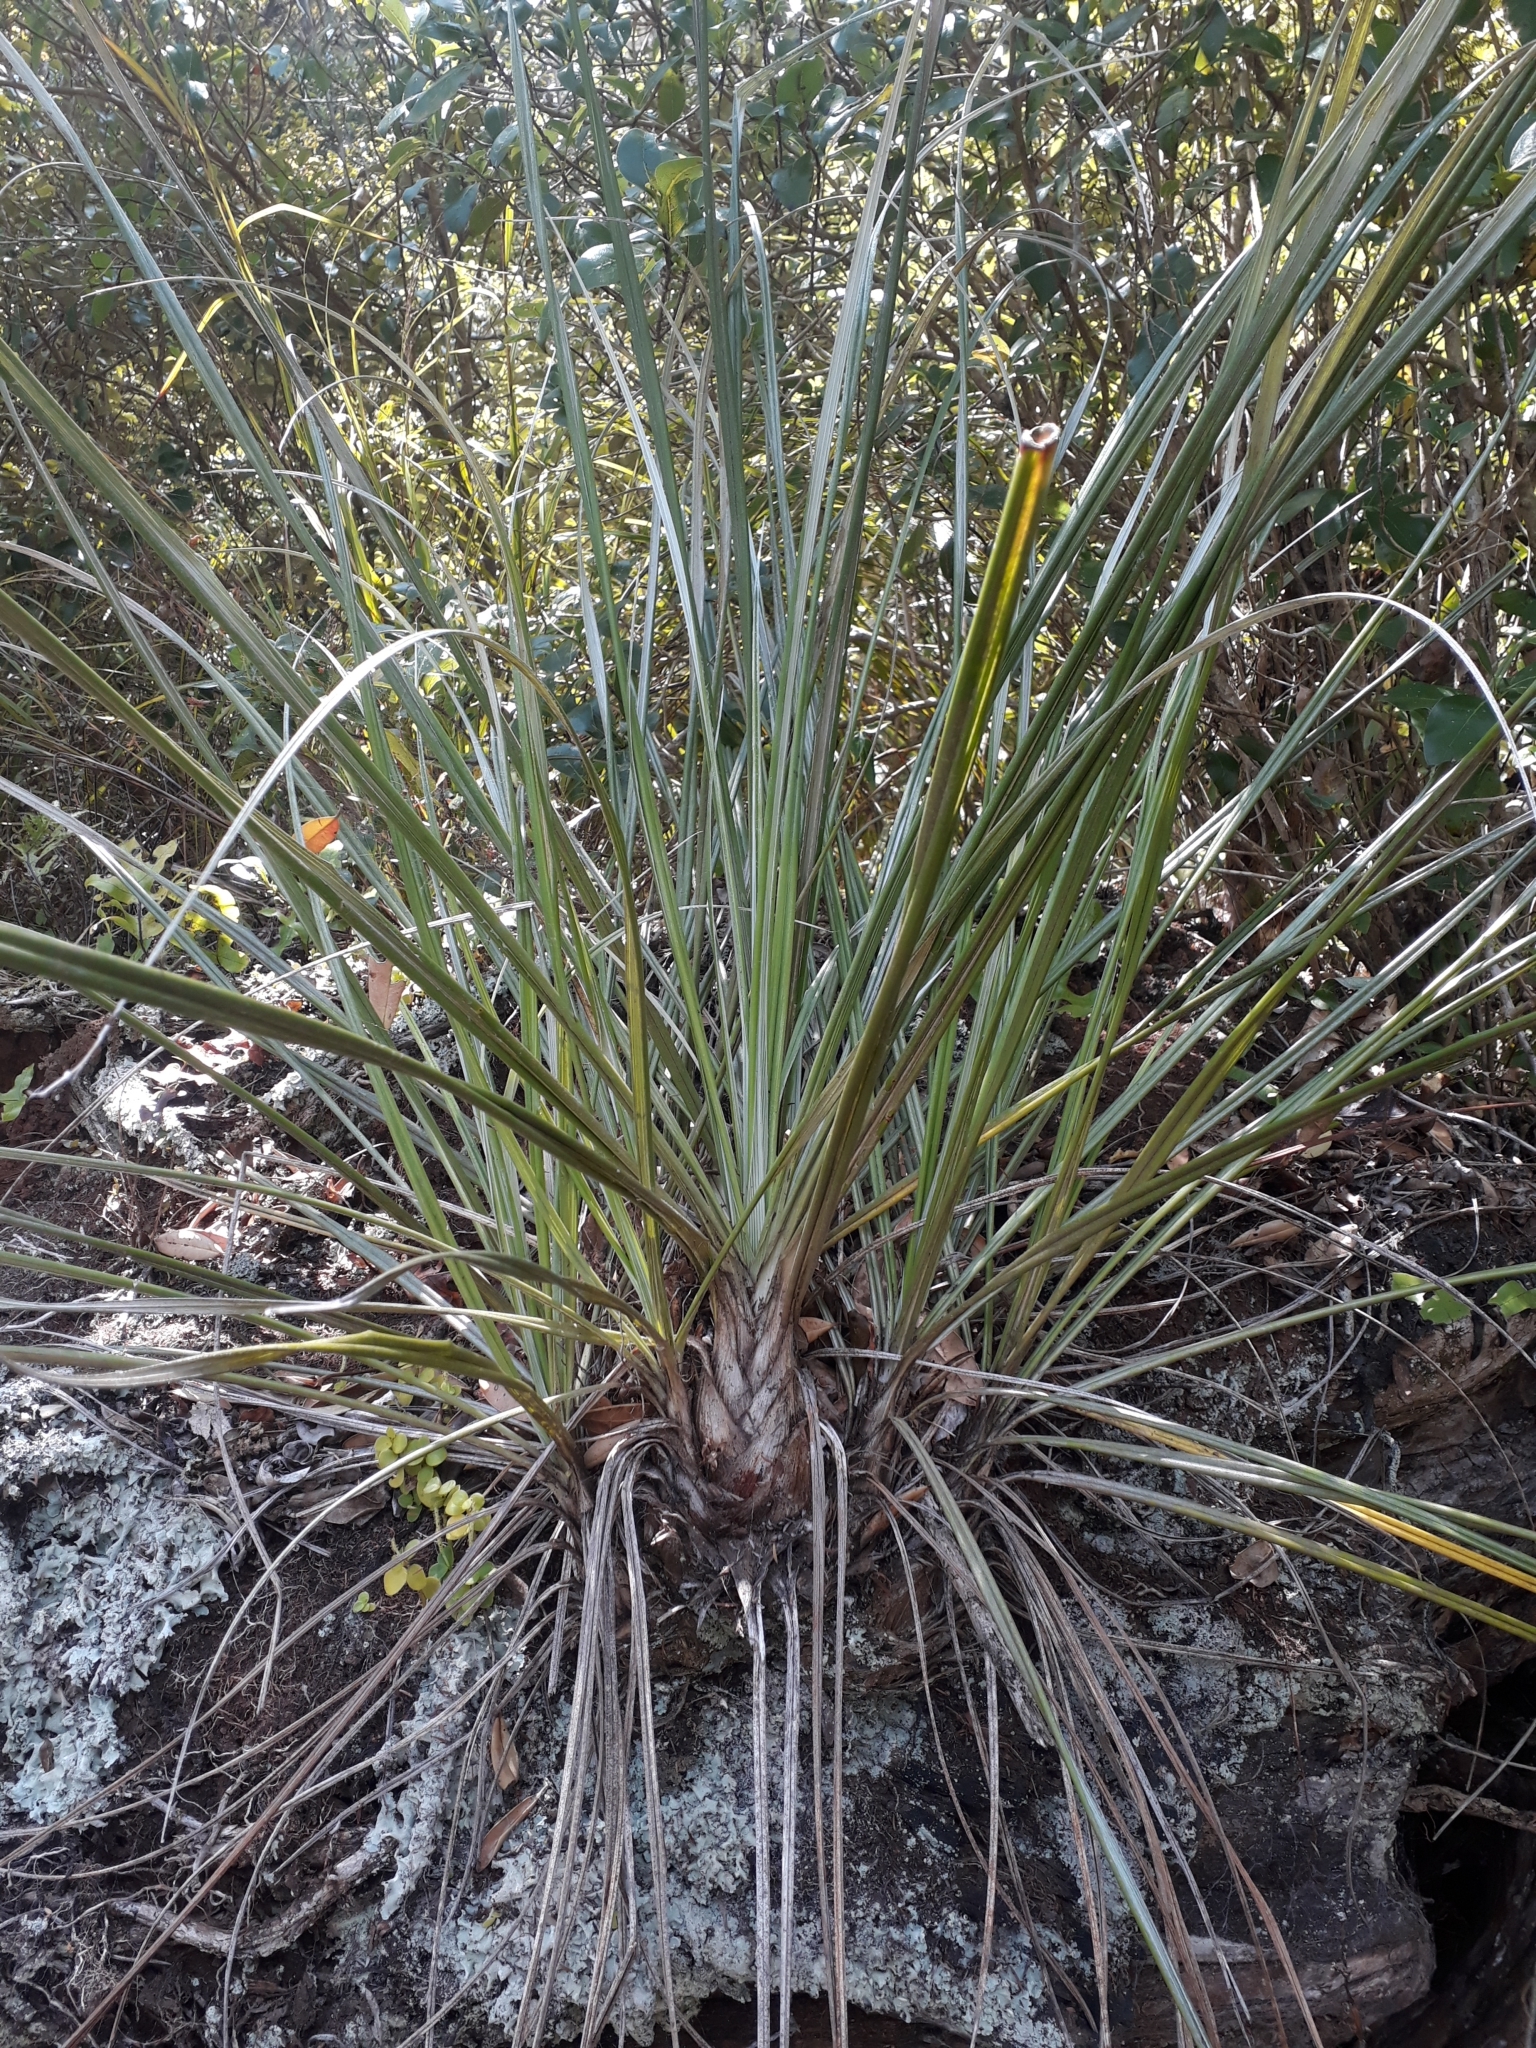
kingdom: Plantae
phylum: Tracheophyta
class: Liliopsida
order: Asparagales
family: Asteliaceae
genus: Astelia
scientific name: Astelia banksii
